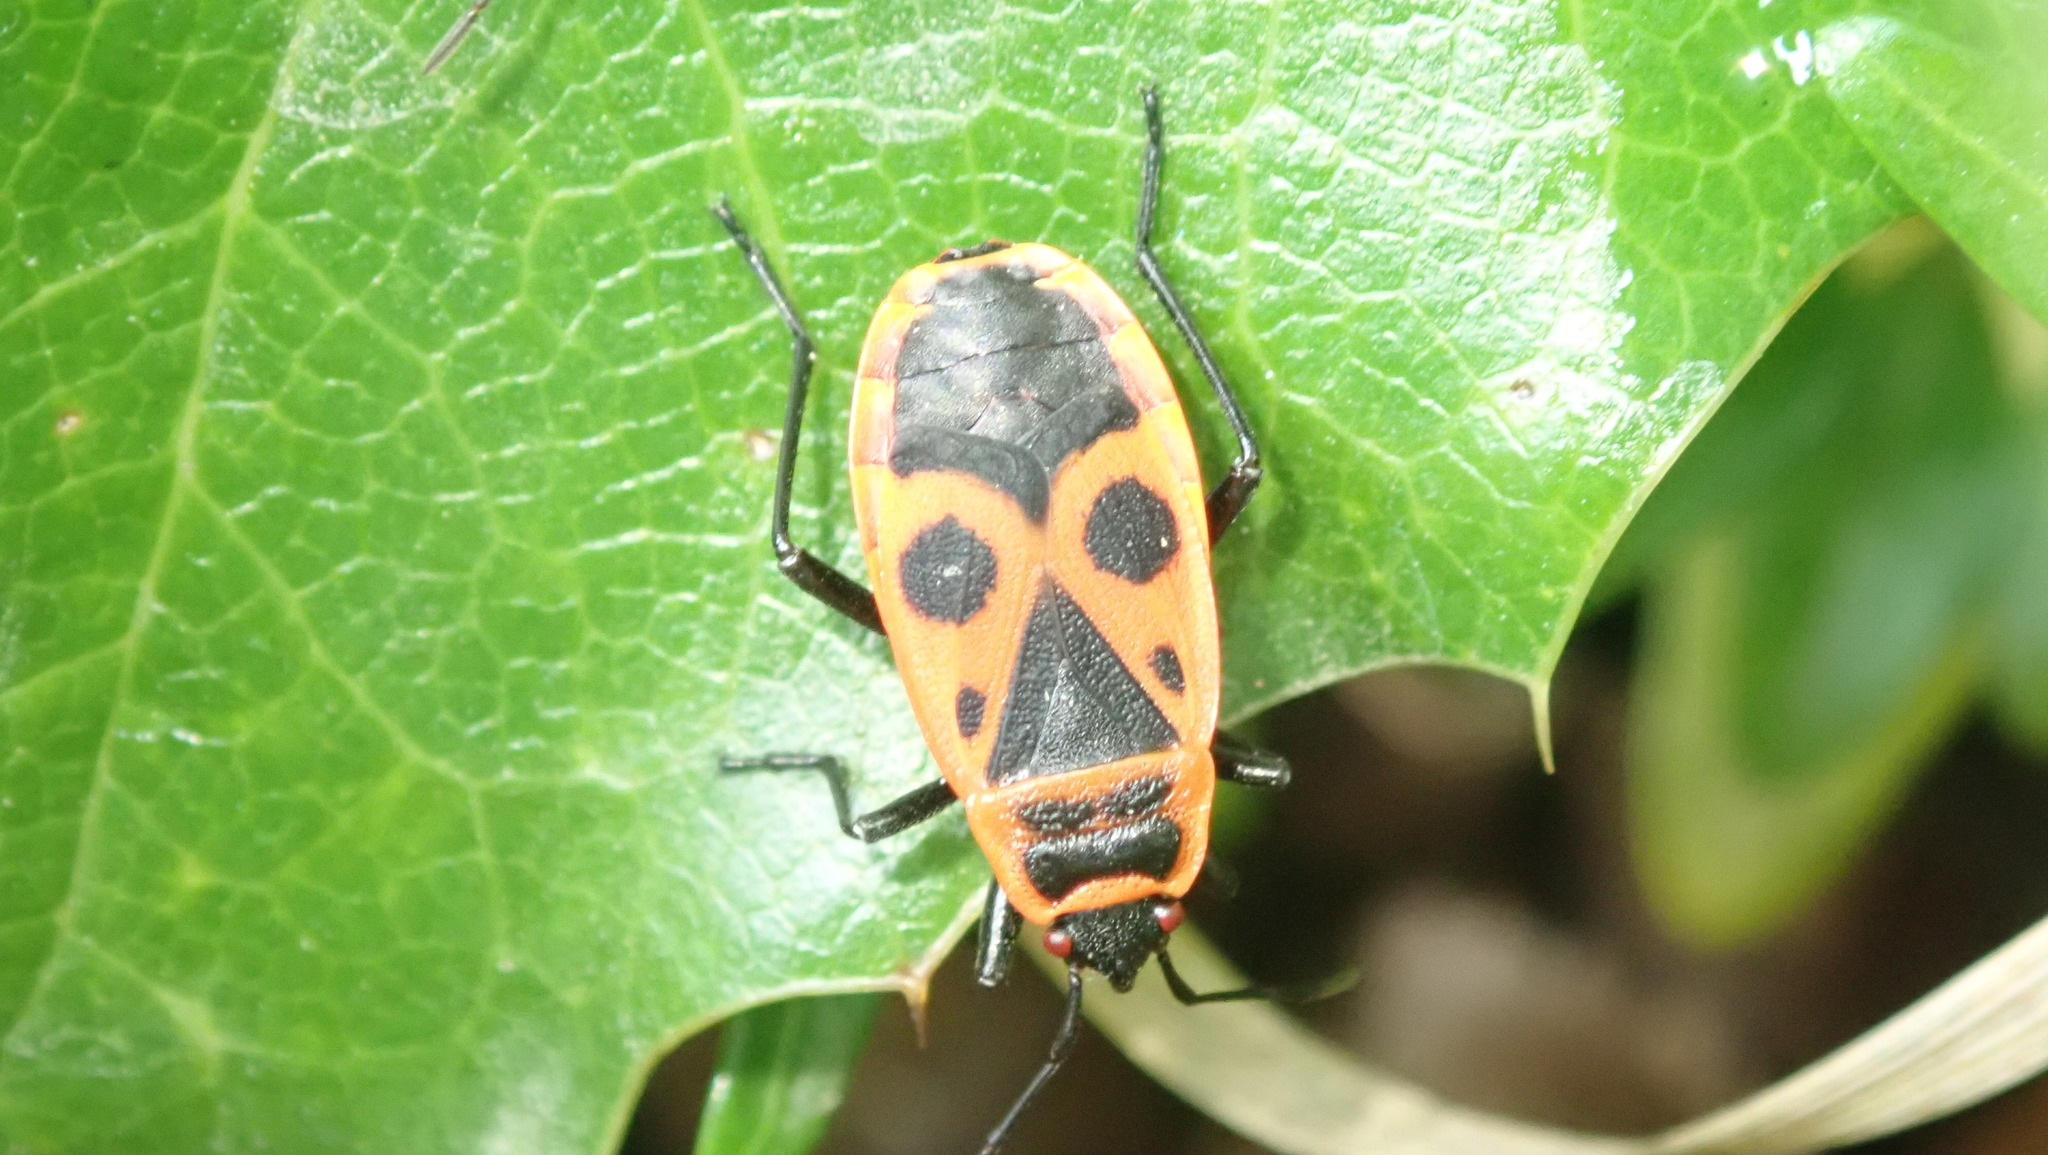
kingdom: Animalia
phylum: Arthropoda
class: Insecta
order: Hemiptera
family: Pyrrhocoridae
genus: Pyrrhocoris
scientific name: Pyrrhocoris apterus
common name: Firebug
